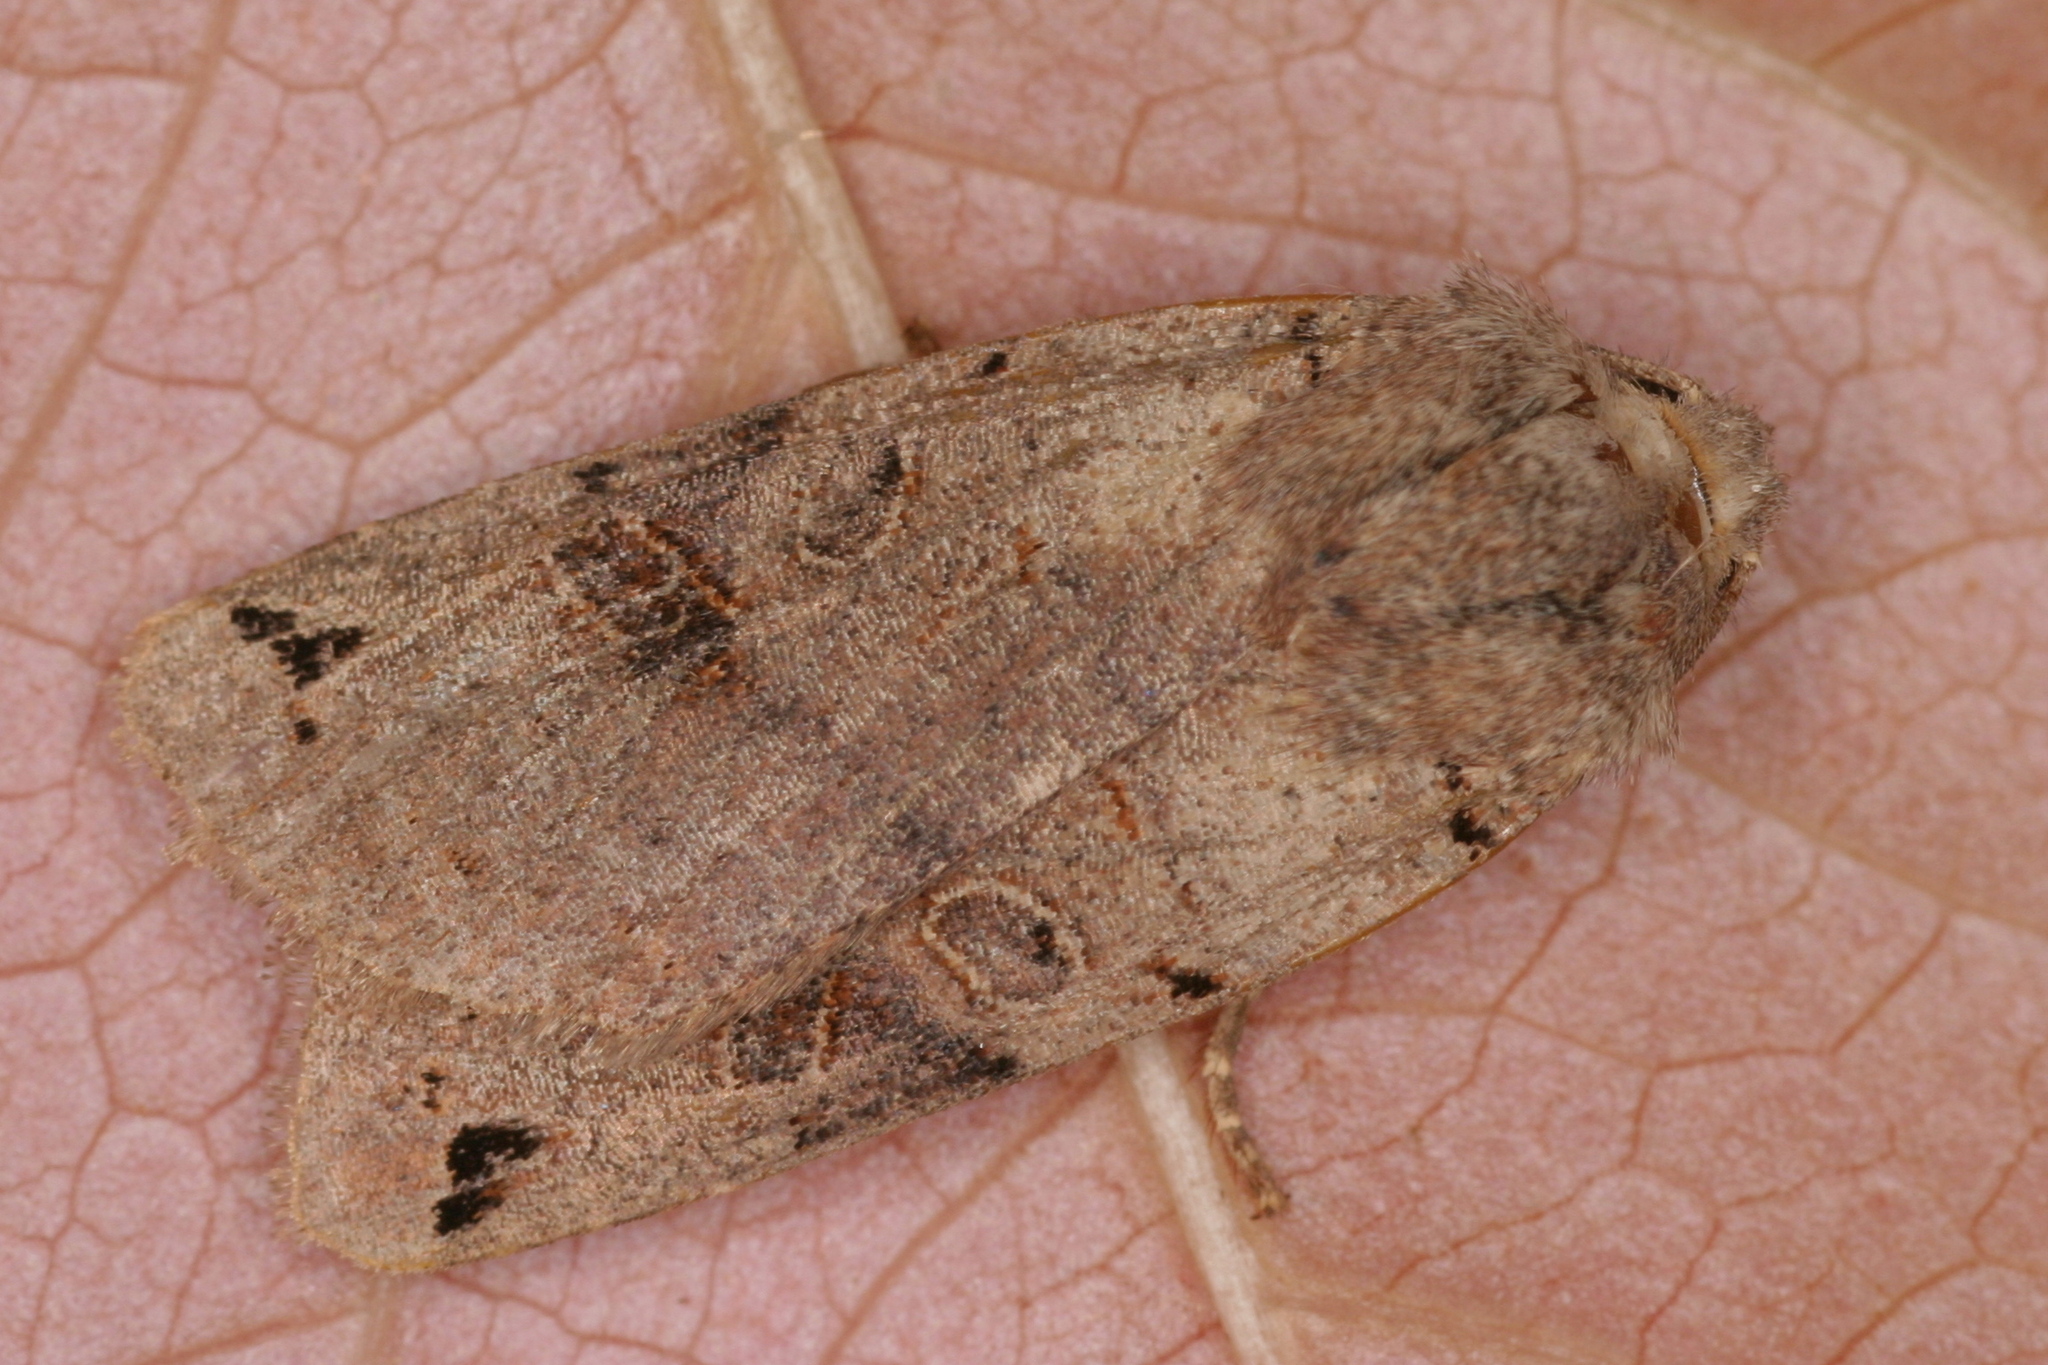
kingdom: Animalia
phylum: Arthropoda
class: Insecta
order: Lepidoptera
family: Noctuidae
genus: Agrochola
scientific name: Agrochola litura
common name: Brown-spot pinion
